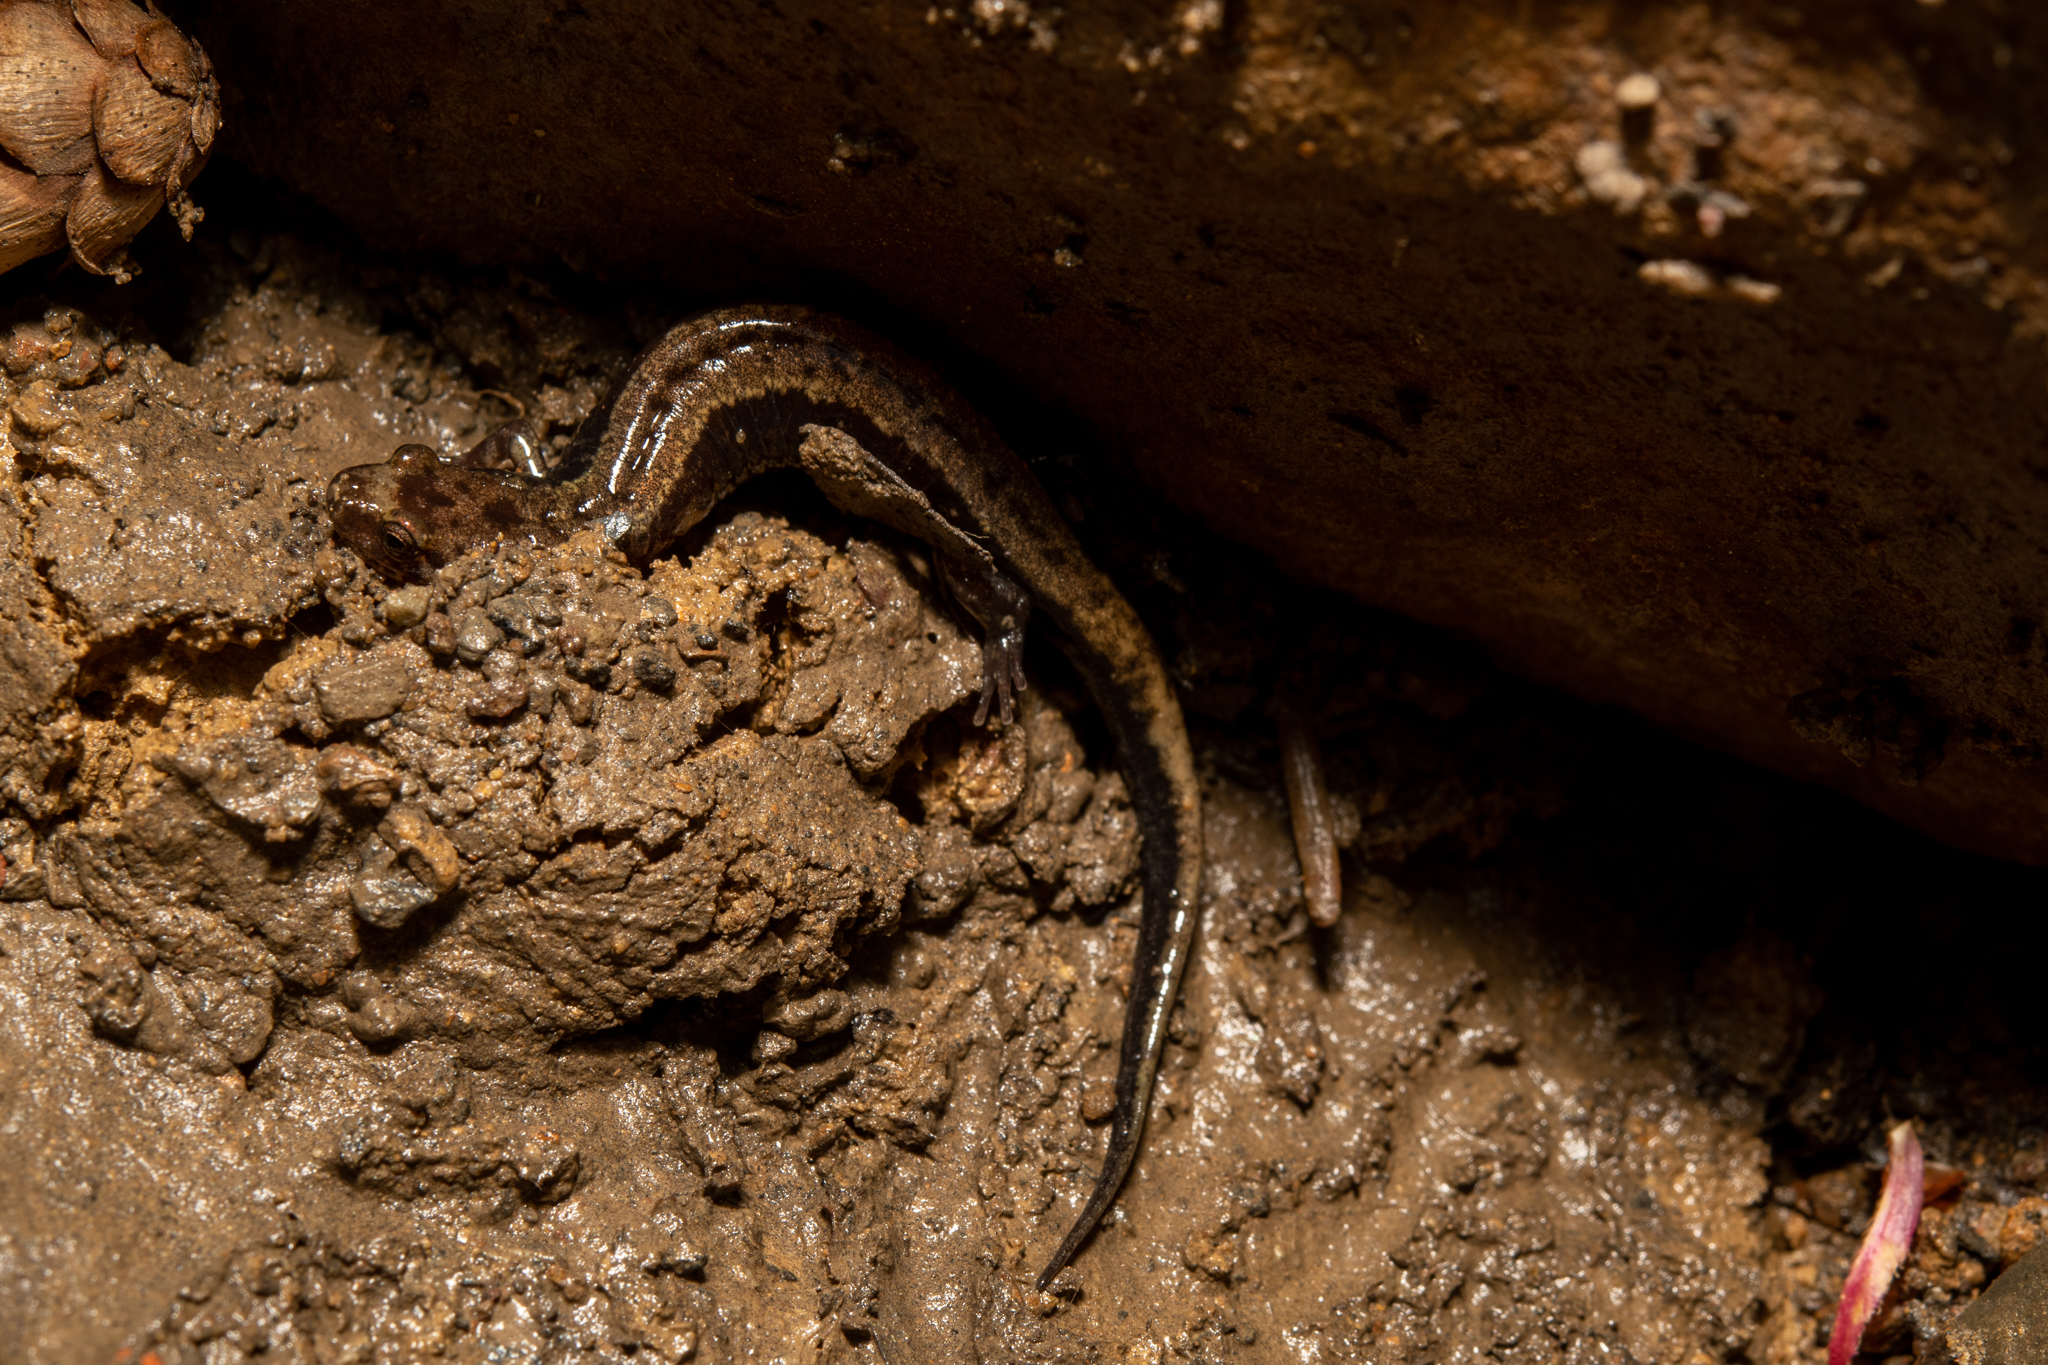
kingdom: Animalia
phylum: Chordata
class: Amphibia
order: Caudata
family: Plethodontidae
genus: Desmognathus
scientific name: Desmognathus ochrophaeus
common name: Allegheny mountain dusky salamander
